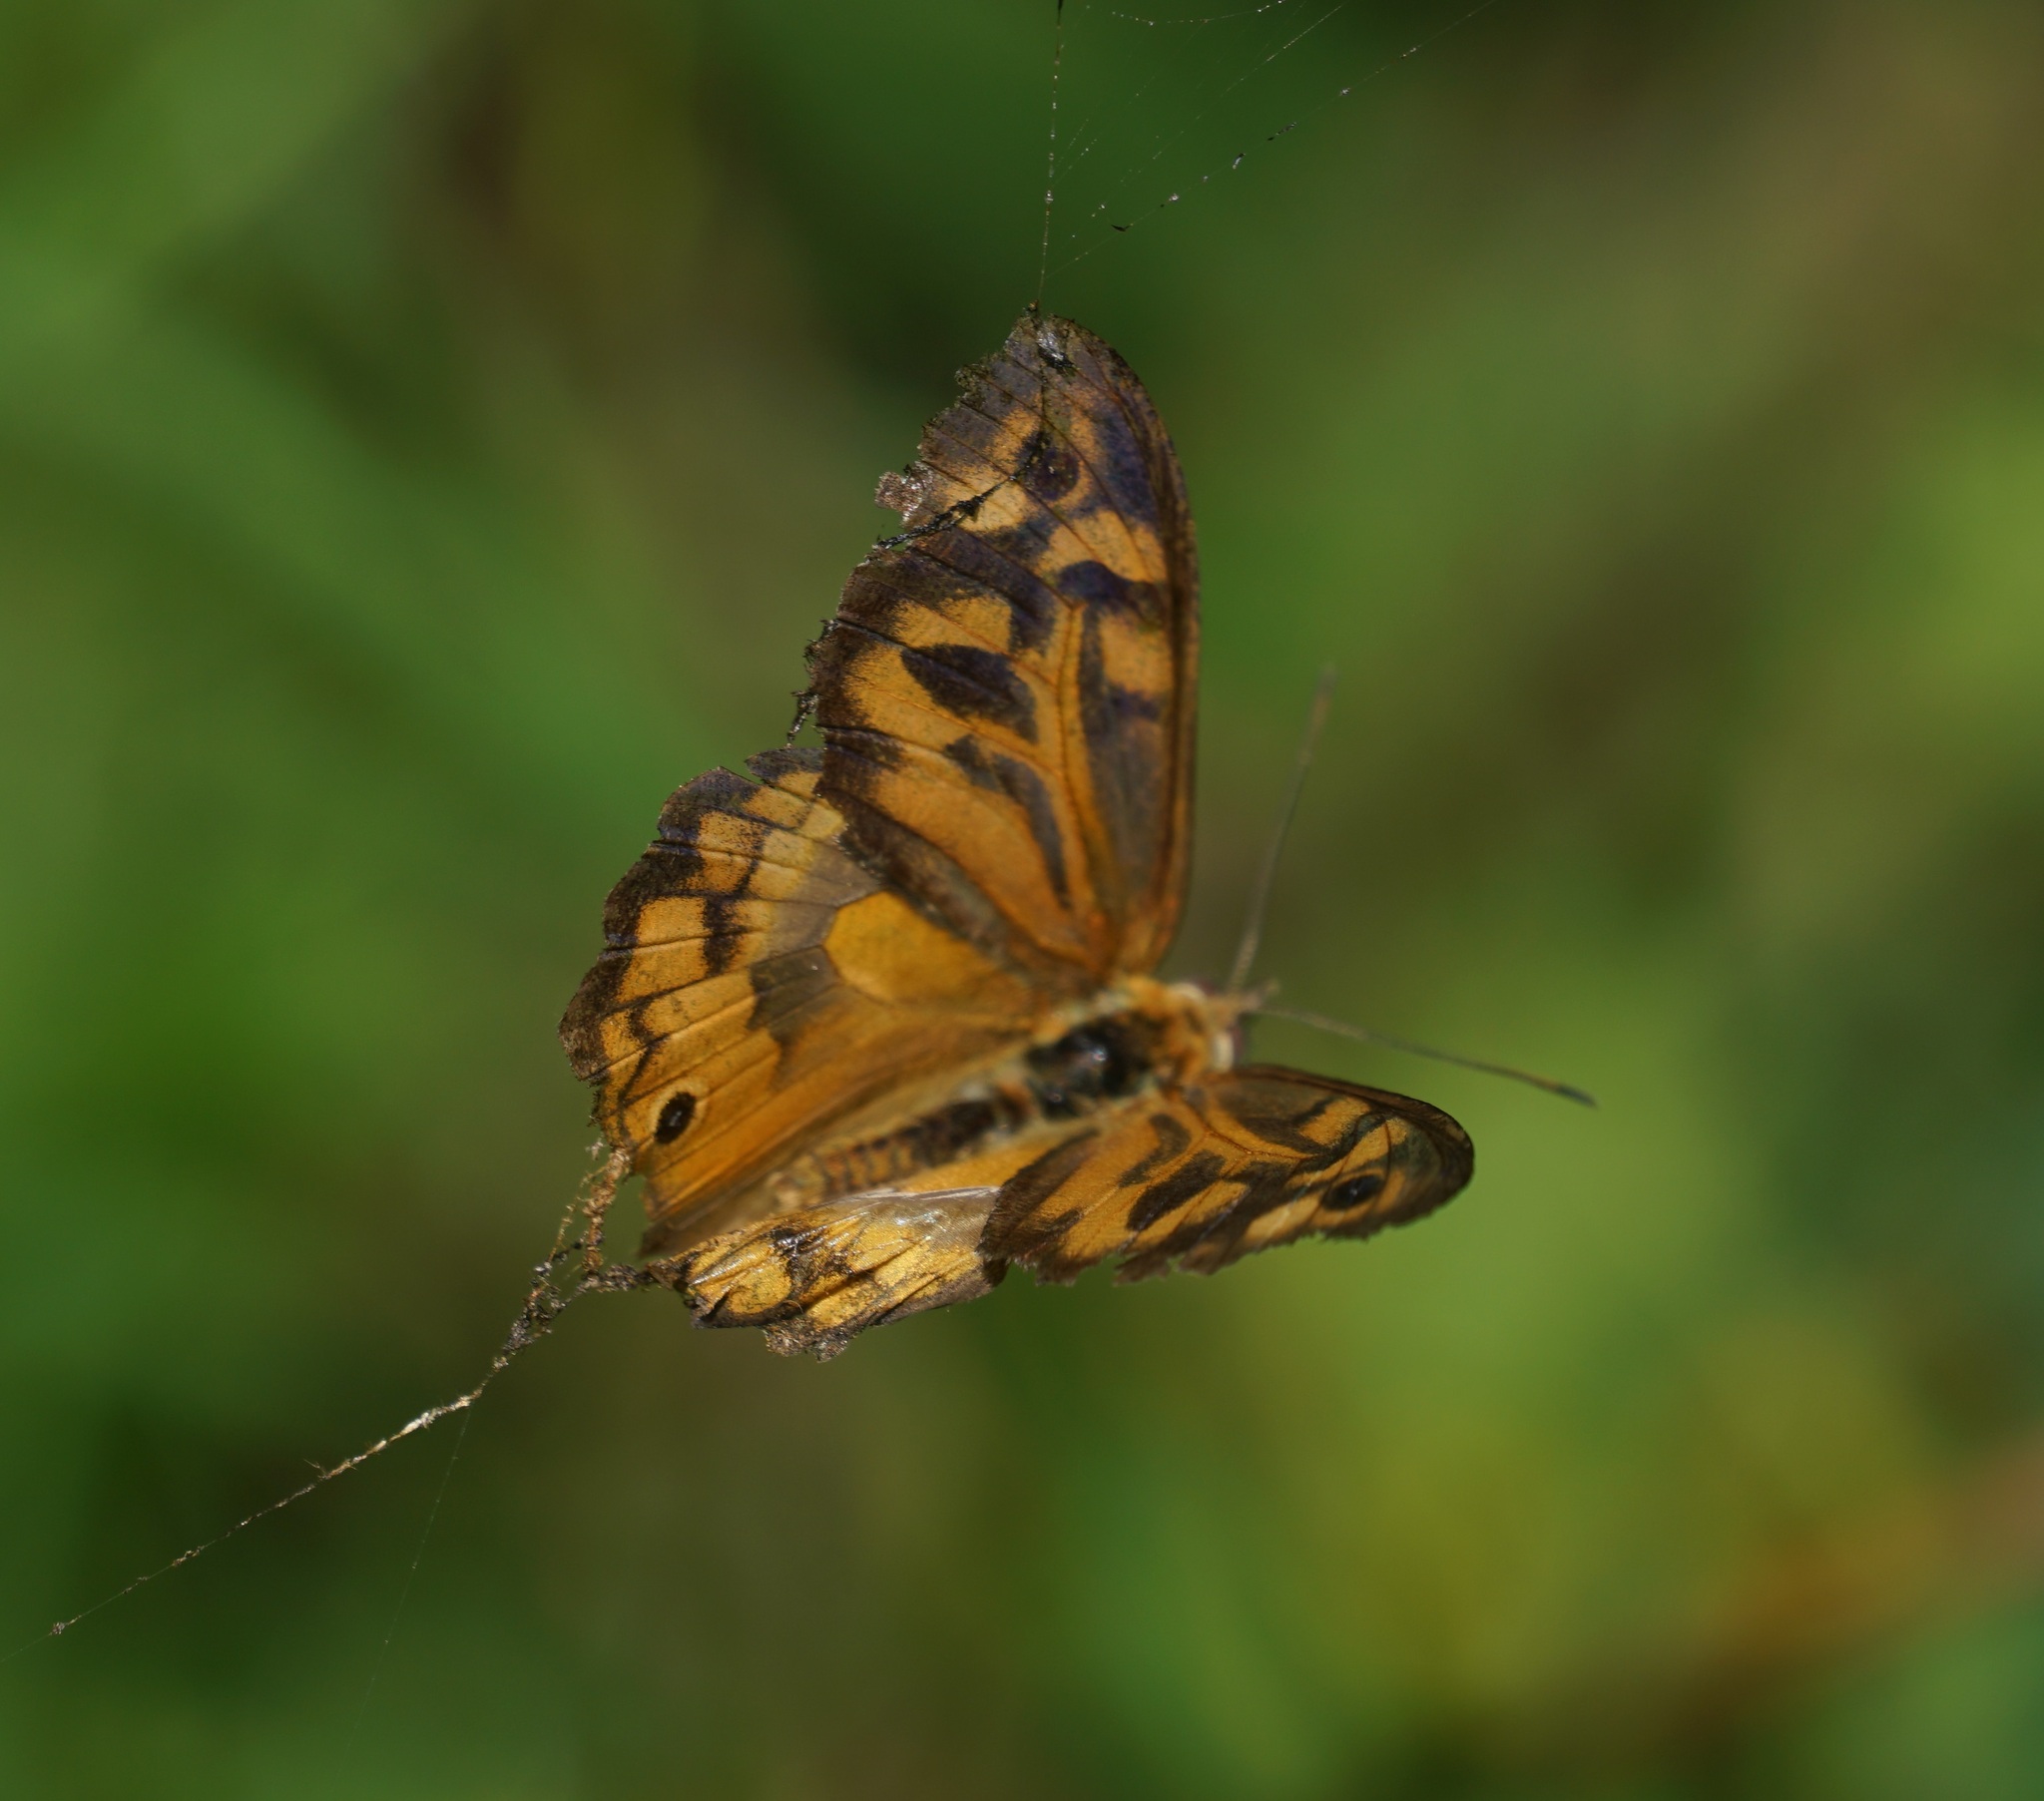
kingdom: Animalia
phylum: Arthropoda
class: Insecta
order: Lepidoptera
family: Nymphalidae
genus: Heteronympha
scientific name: Heteronympha merope
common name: Common brown
